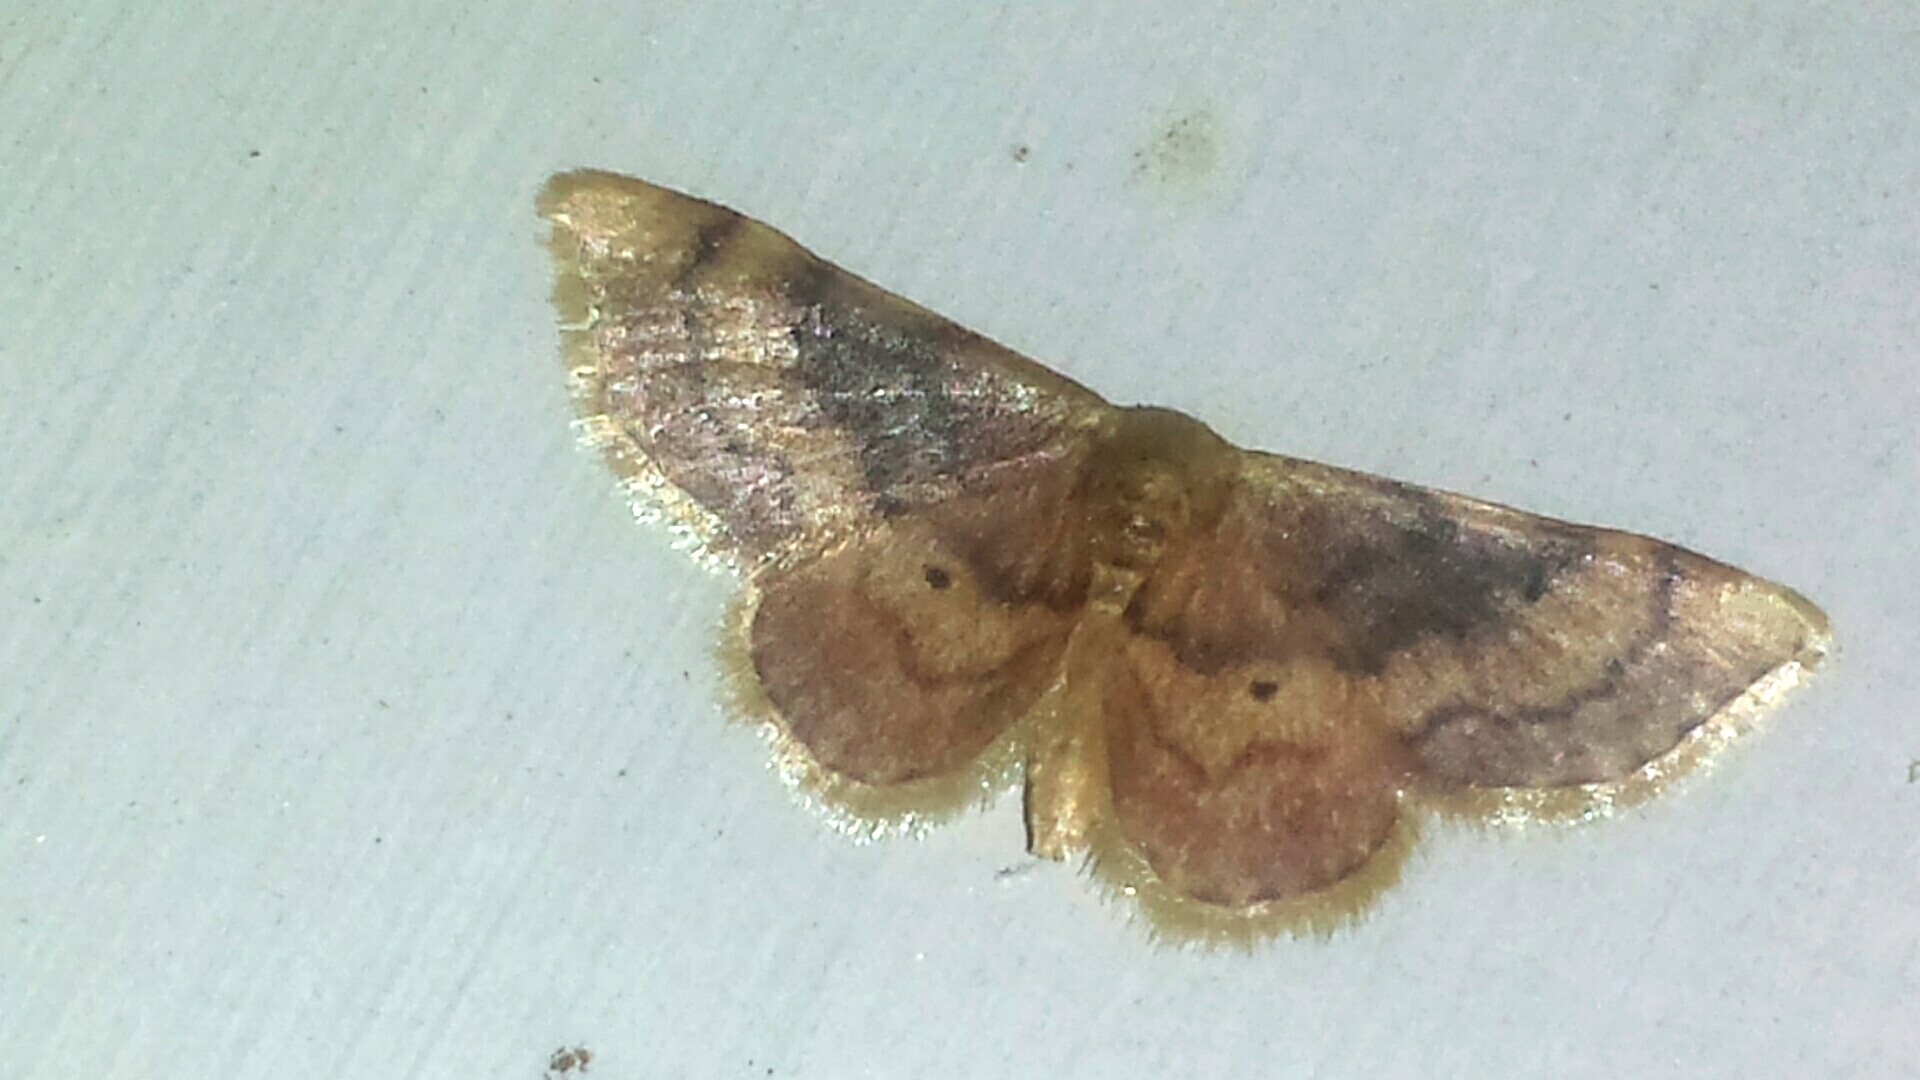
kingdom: Animalia
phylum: Arthropoda
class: Insecta
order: Lepidoptera
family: Geometridae
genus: Idaea
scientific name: Idaea demissaria
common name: Red-bordered wave
